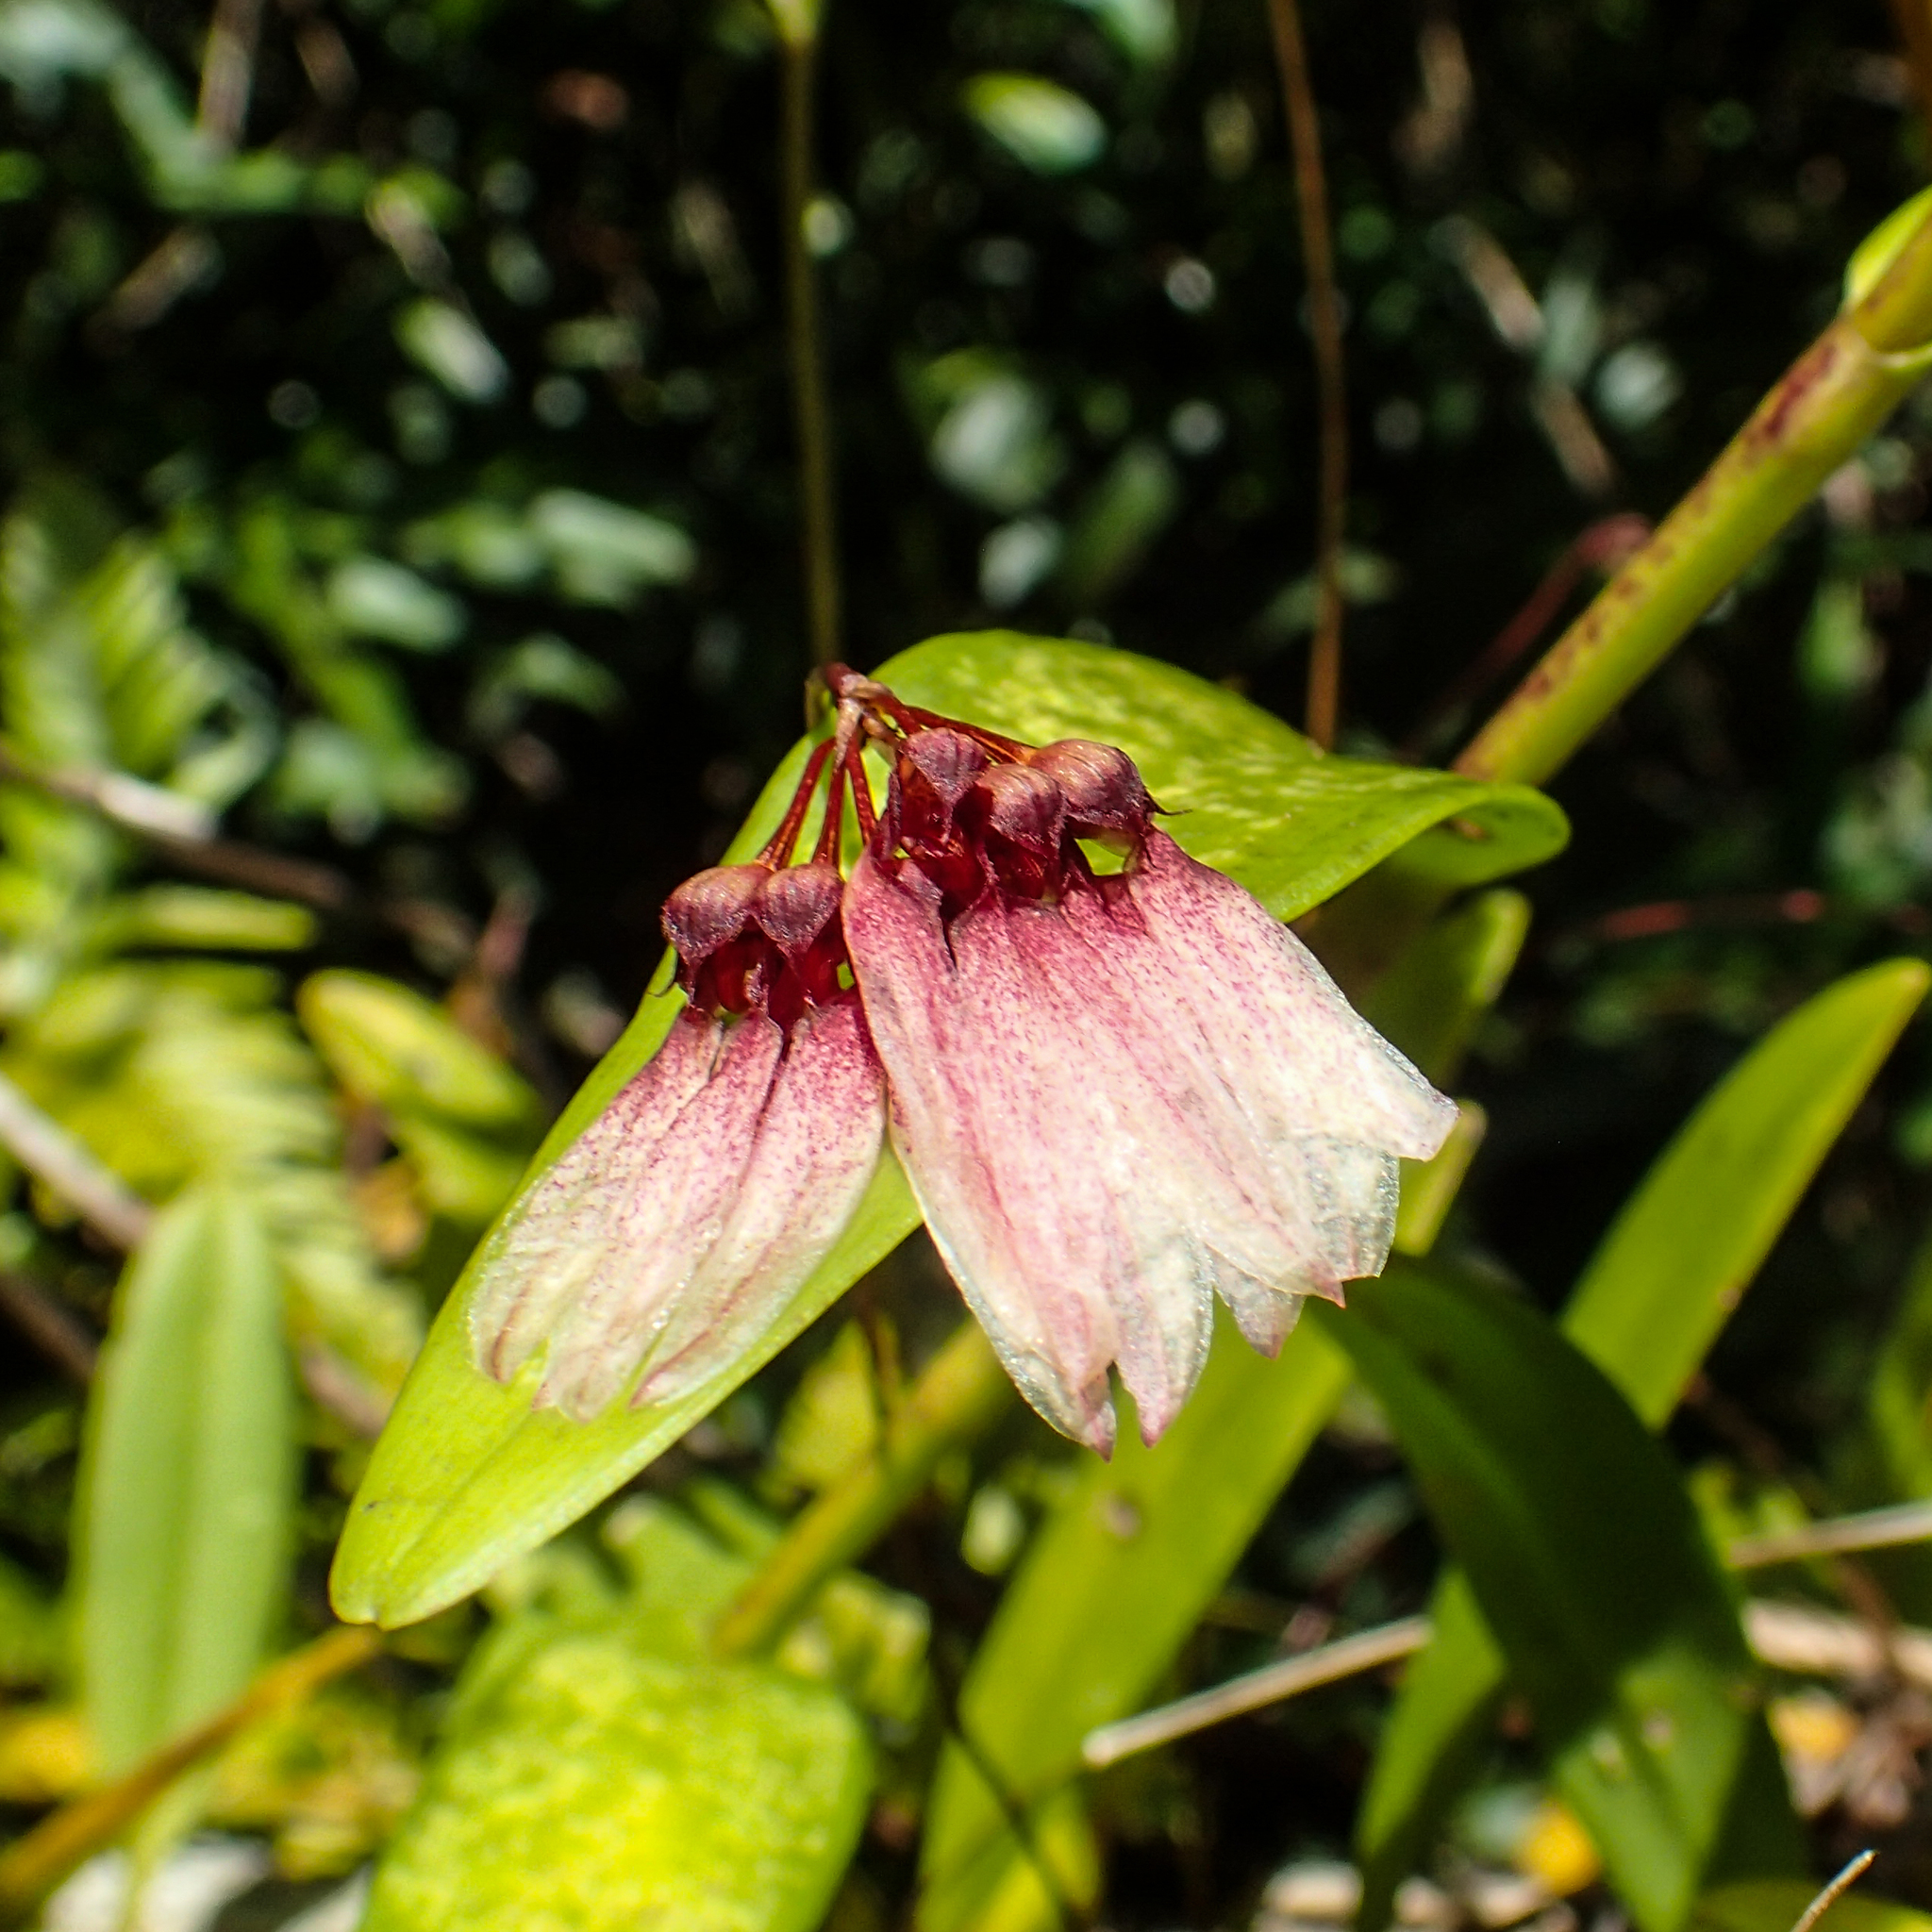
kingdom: Plantae
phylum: Tracheophyta
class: Liliopsida
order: Asparagales
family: Orchidaceae
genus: Bulbophyllum
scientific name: Bulbophyllum lepidum
